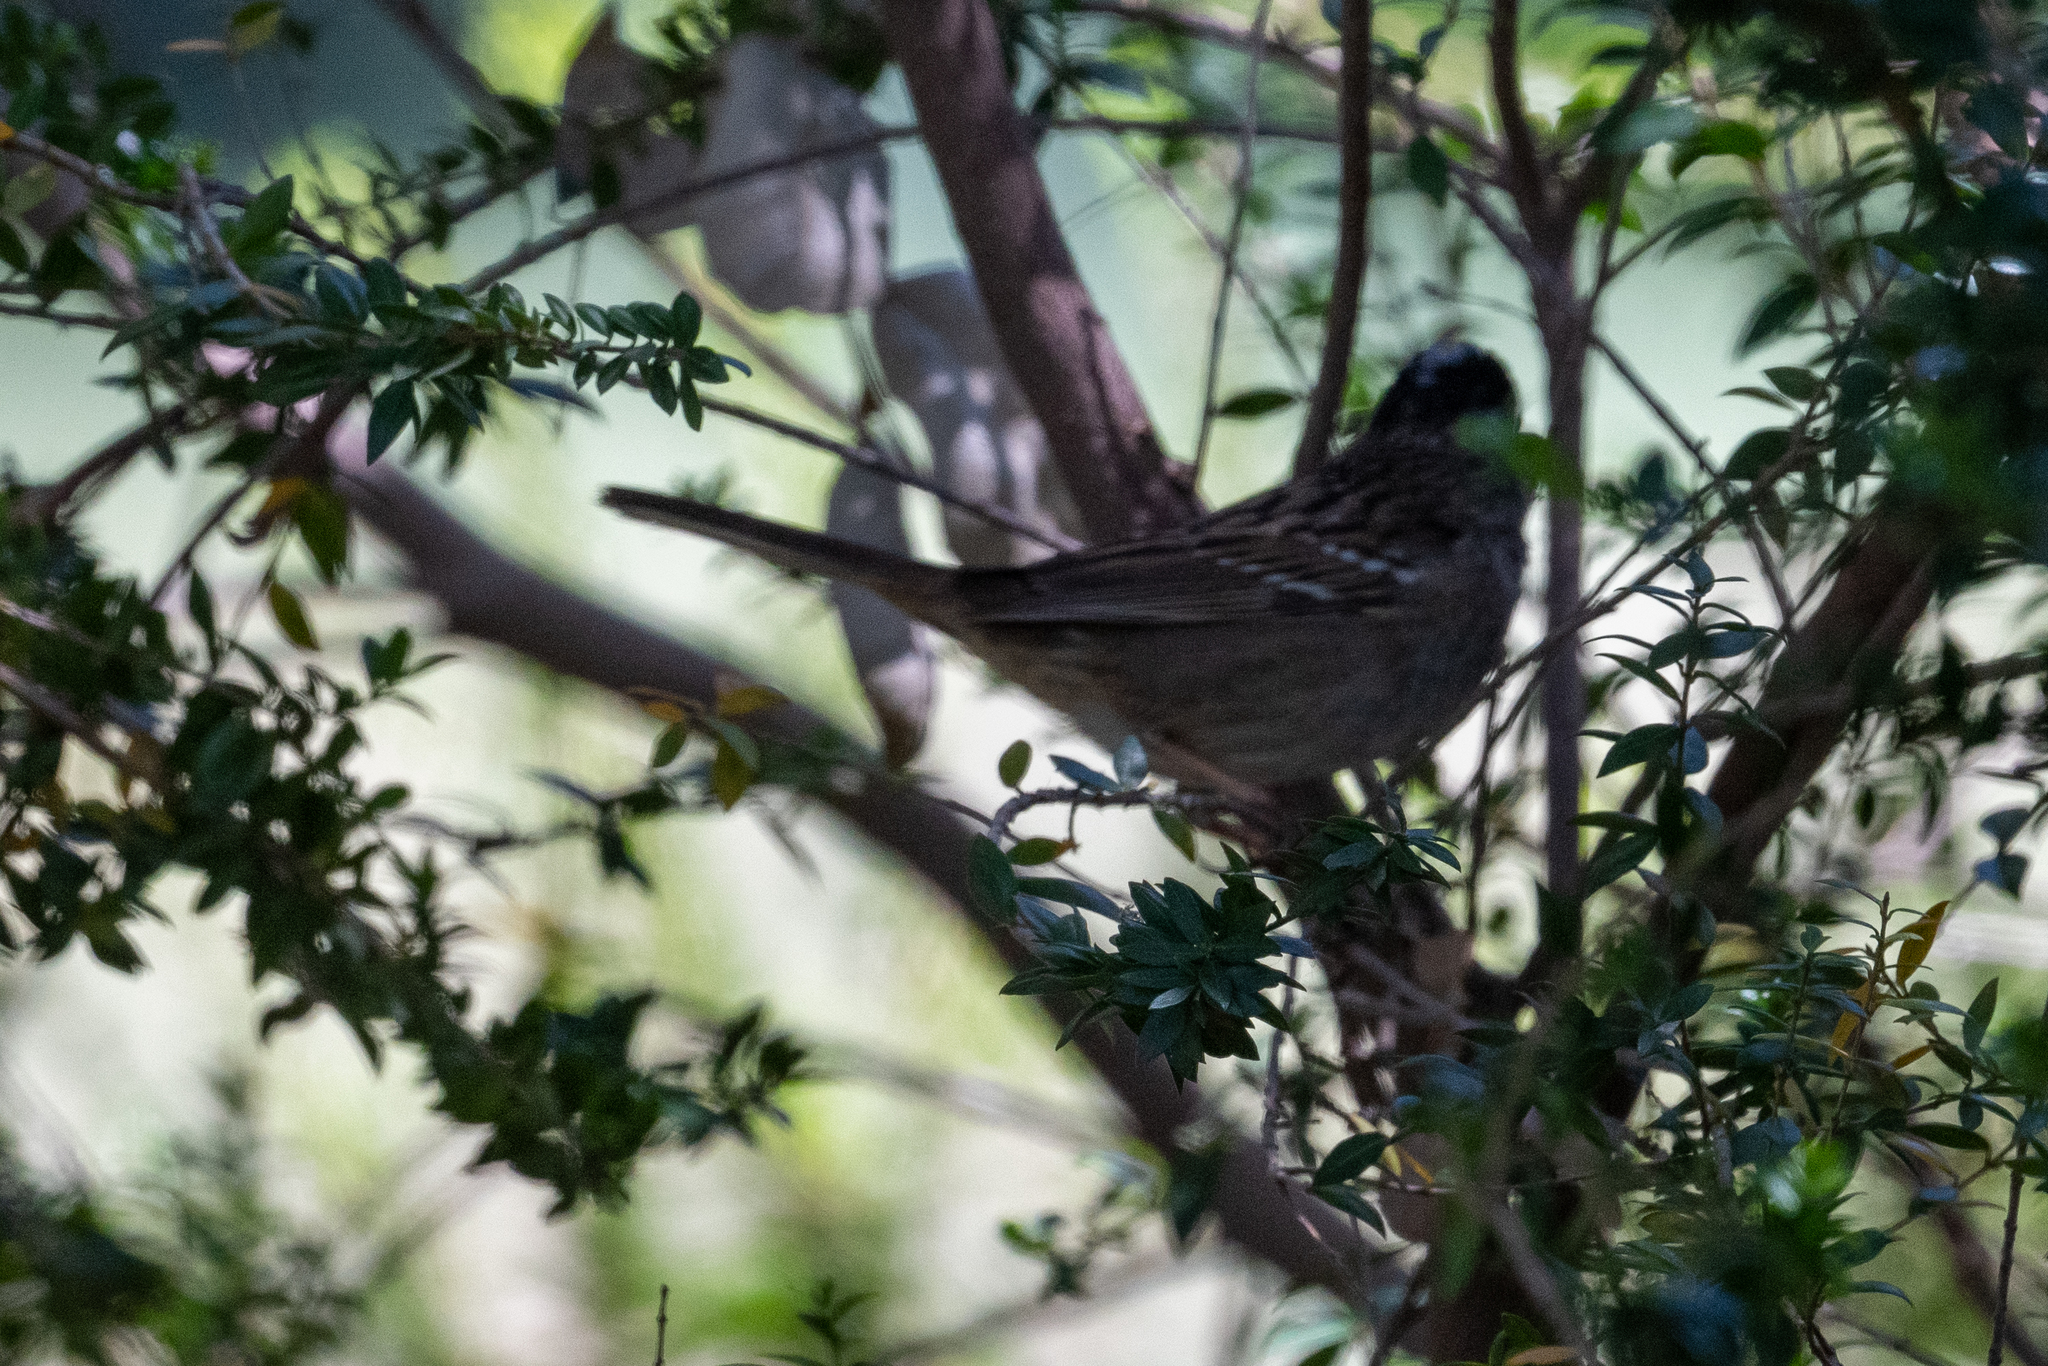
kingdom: Animalia
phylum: Chordata
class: Aves
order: Passeriformes
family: Passerellidae
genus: Zonotrichia
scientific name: Zonotrichia leucophrys
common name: White-crowned sparrow
